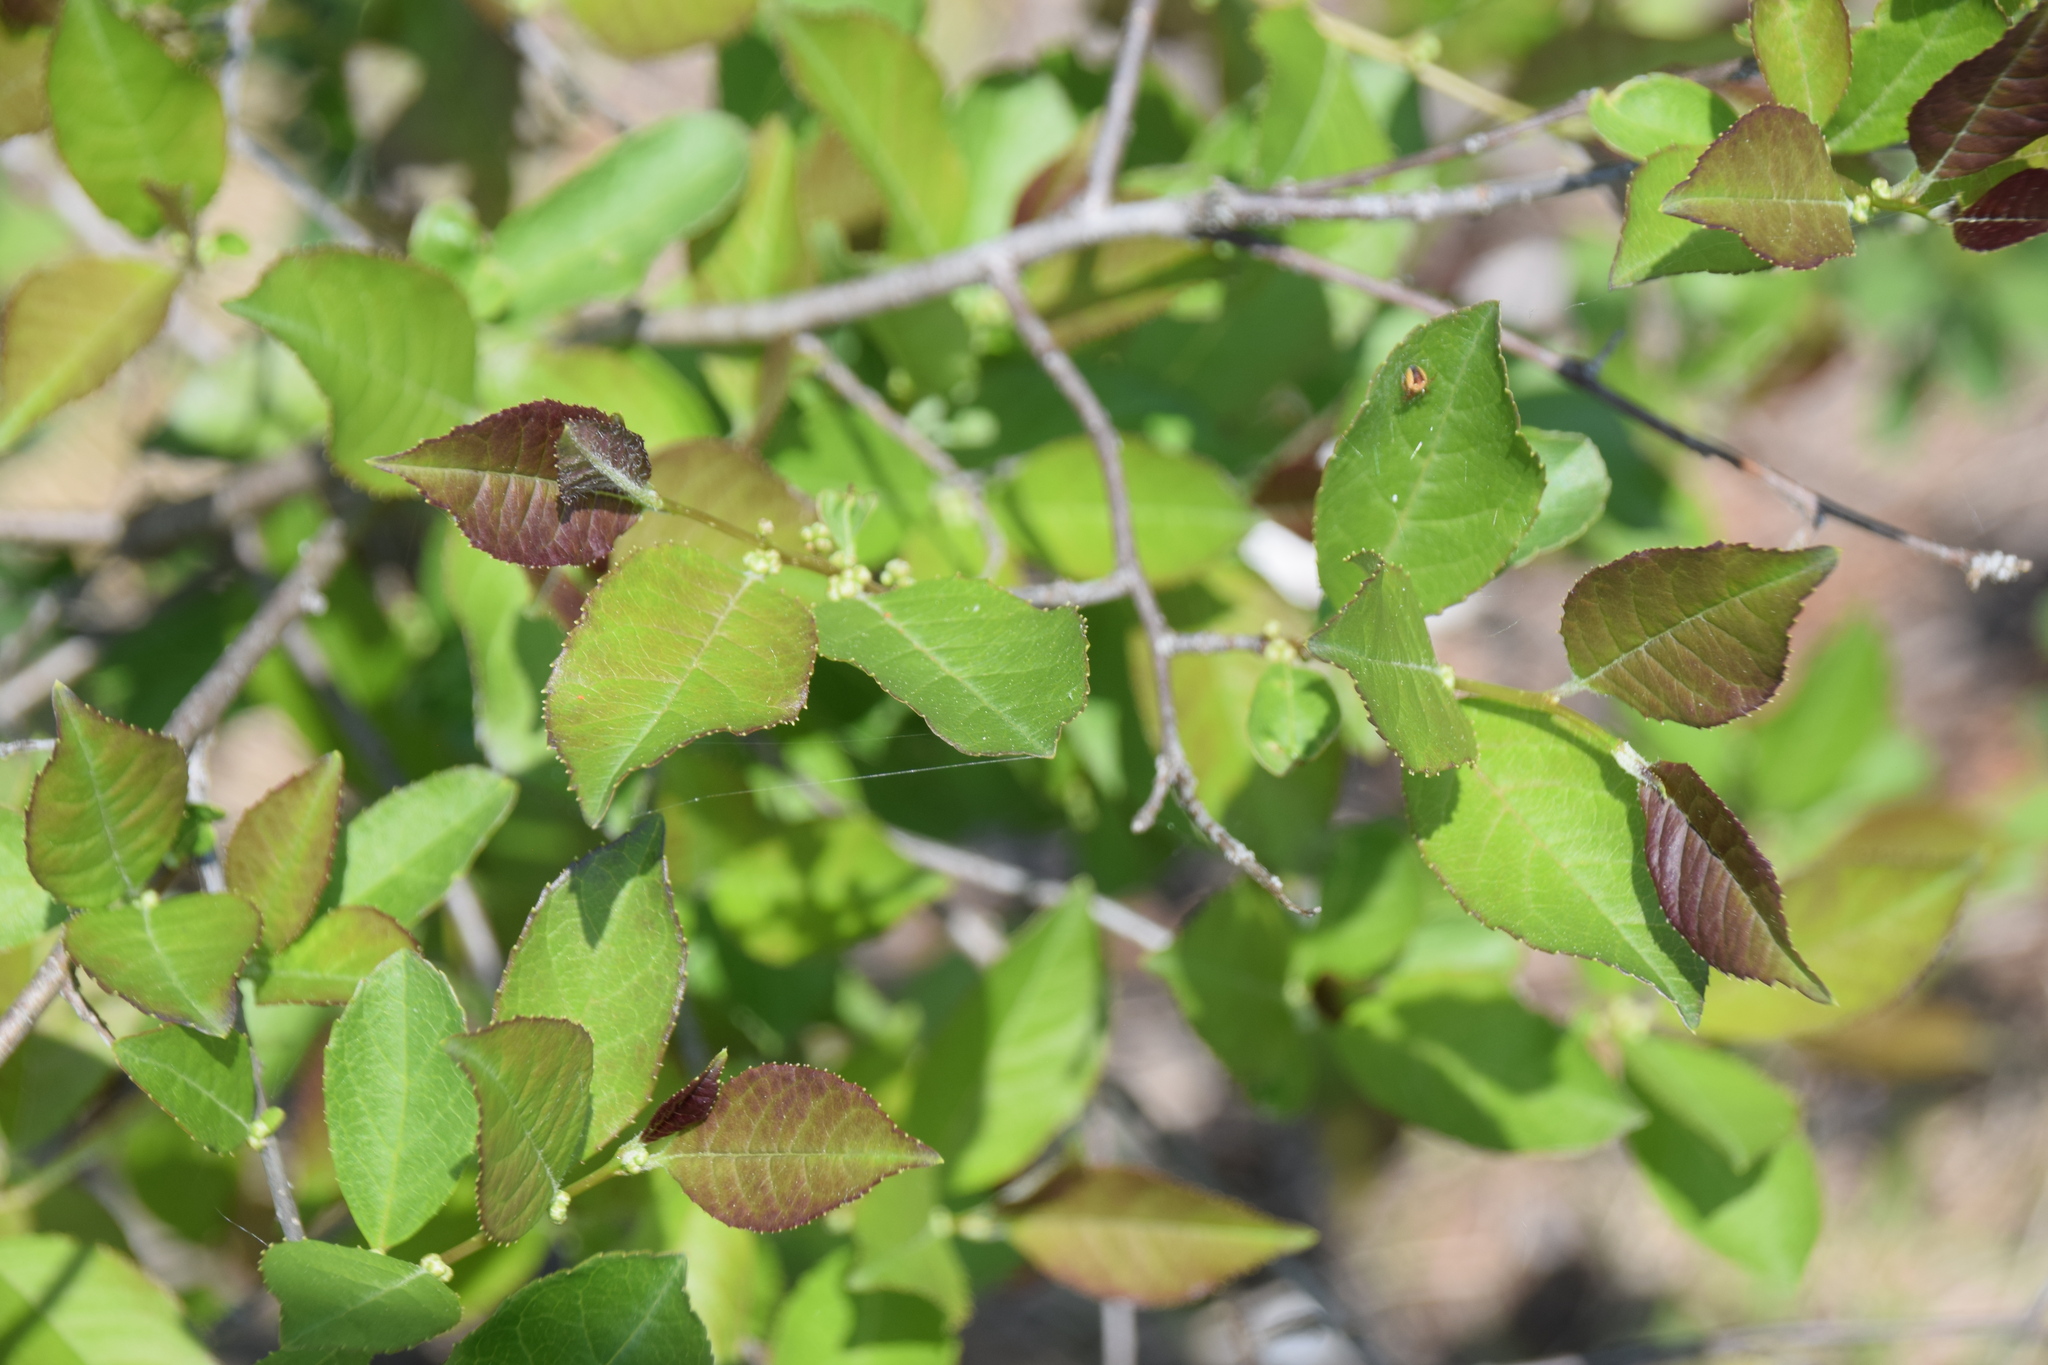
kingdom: Plantae
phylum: Tracheophyta
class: Magnoliopsida
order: Aquifoliales
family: Aquifoliaceae
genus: Ilex
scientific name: Ilex verticillata
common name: Virginia winterberry
